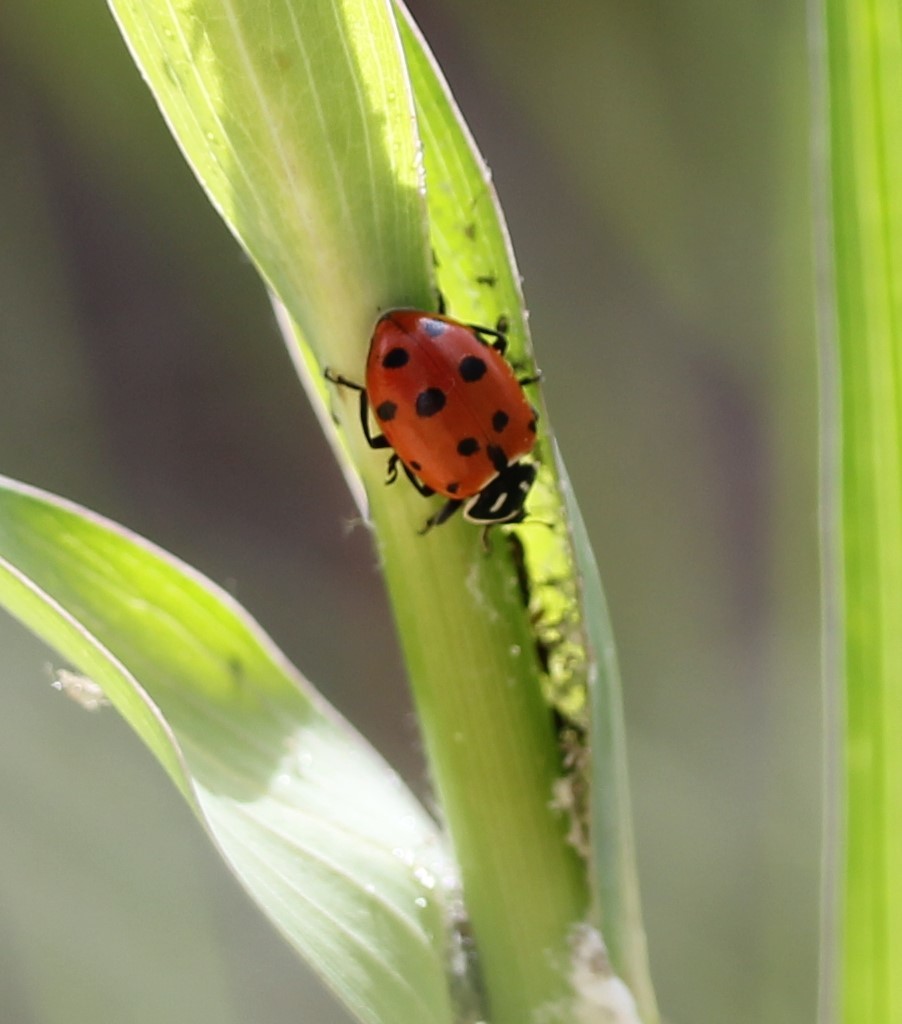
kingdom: Animalia
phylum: Arthropoda
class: Insecta
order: Coleoptera
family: Coccinellidae
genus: Hippodamia
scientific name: Hippodamia convergens
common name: Convergent lady beetle
